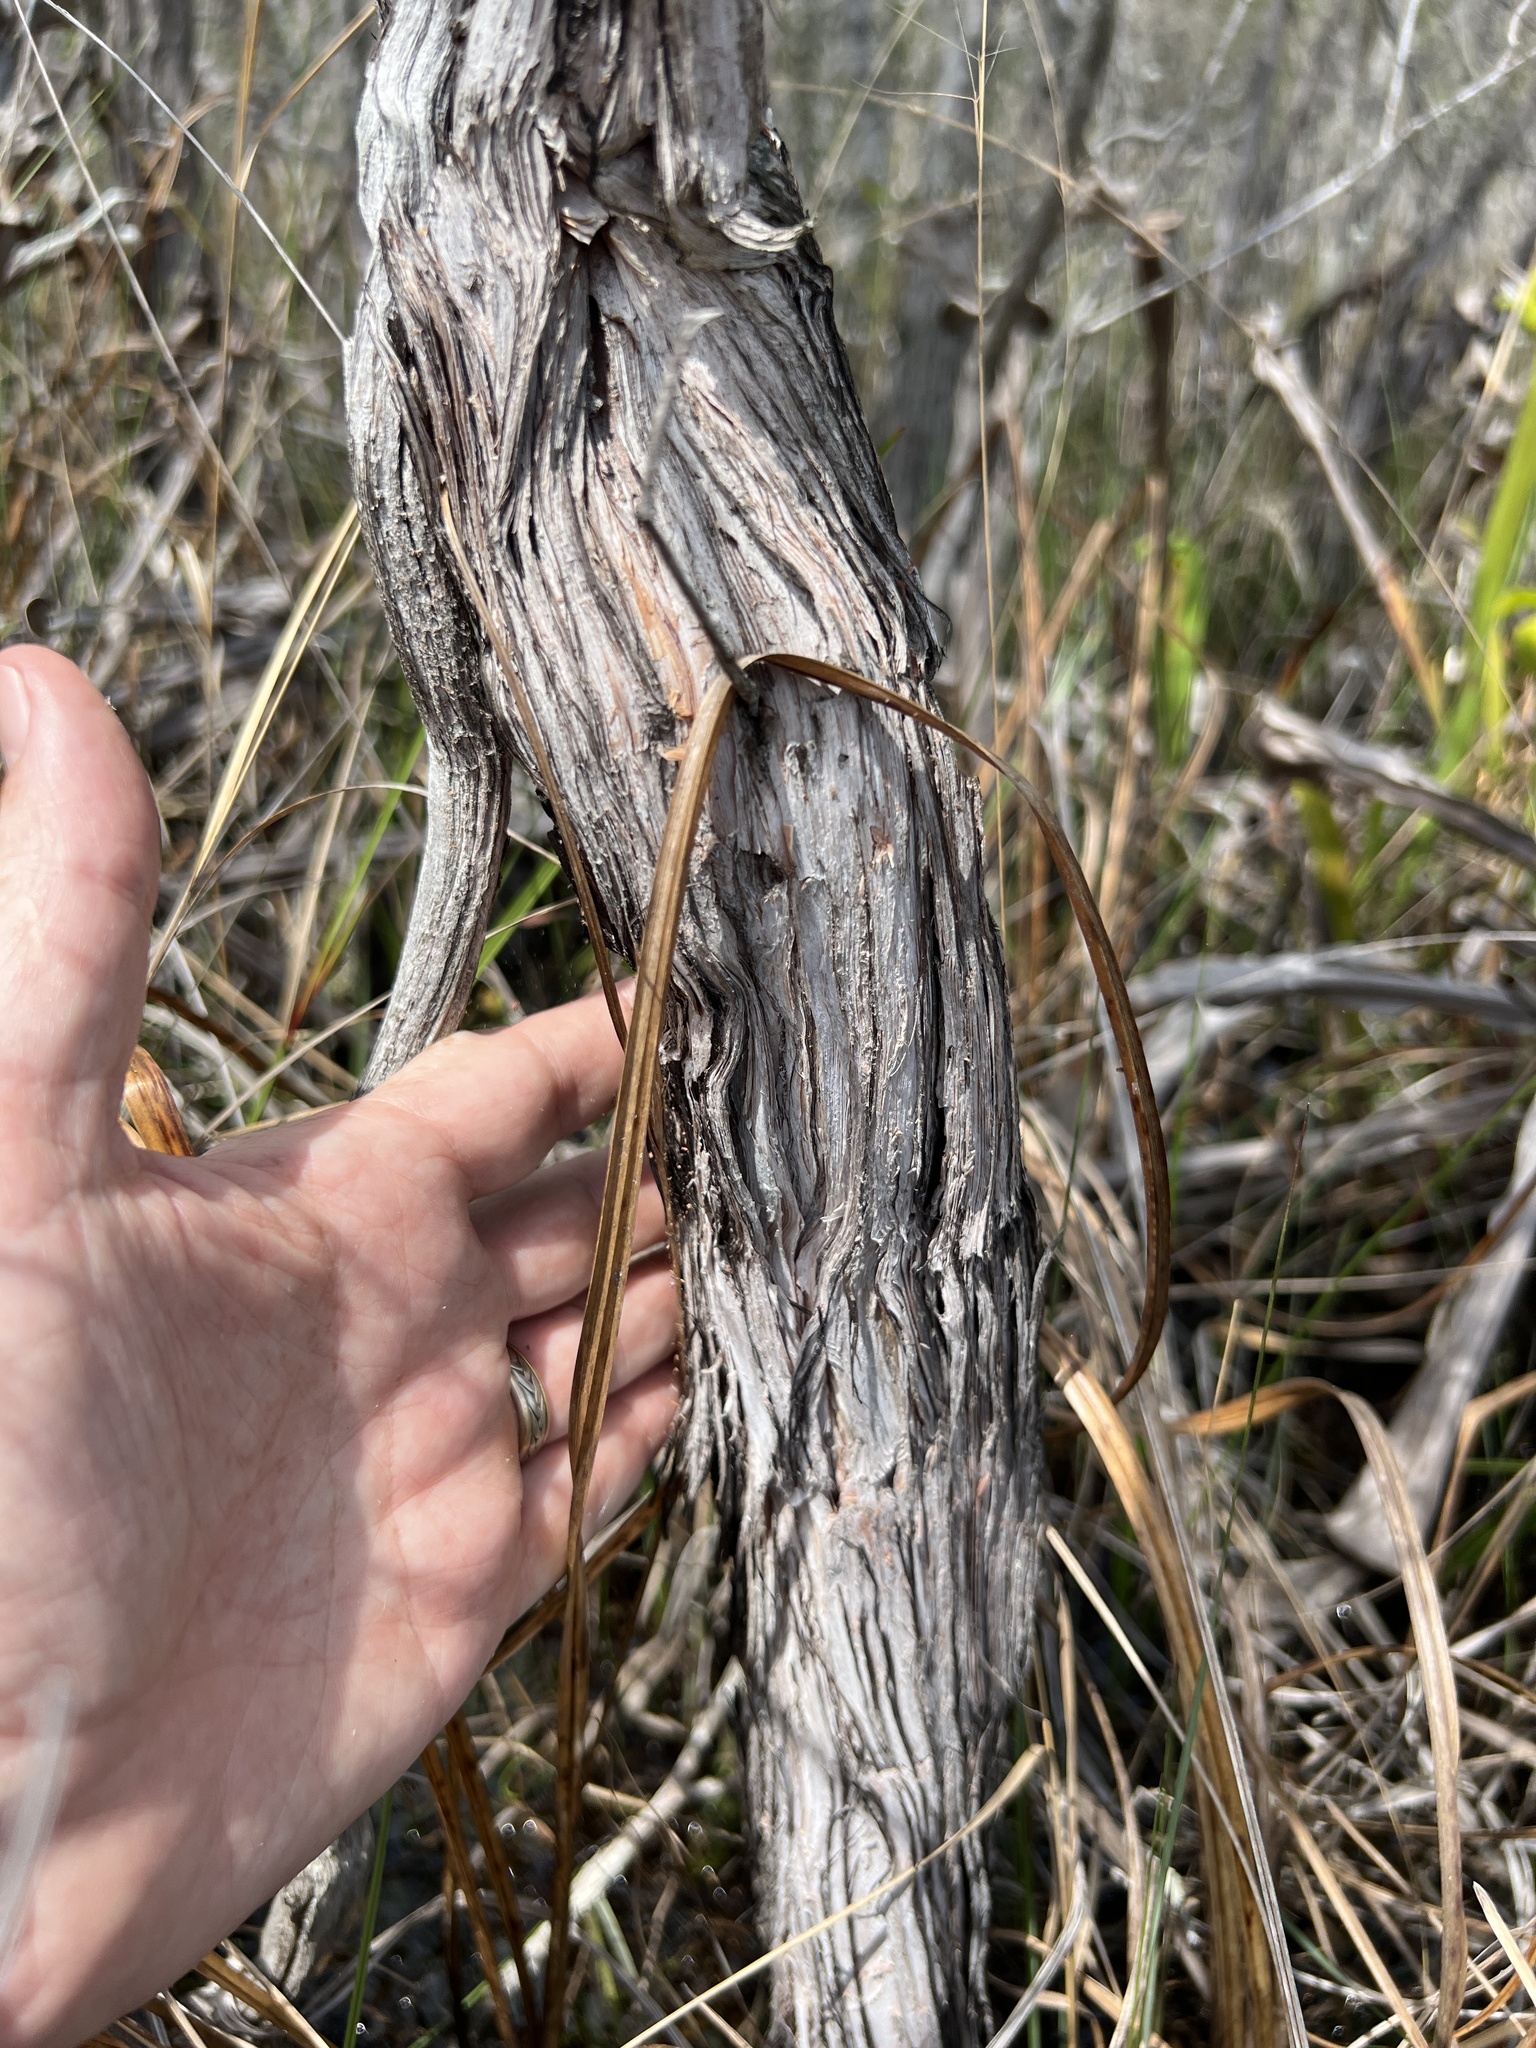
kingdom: Plantae
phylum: Tracheophyta
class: Magnoliopsida
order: Malpighiales
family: Hypericaceae
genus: Hypericum
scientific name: Hypericum chapmanii
